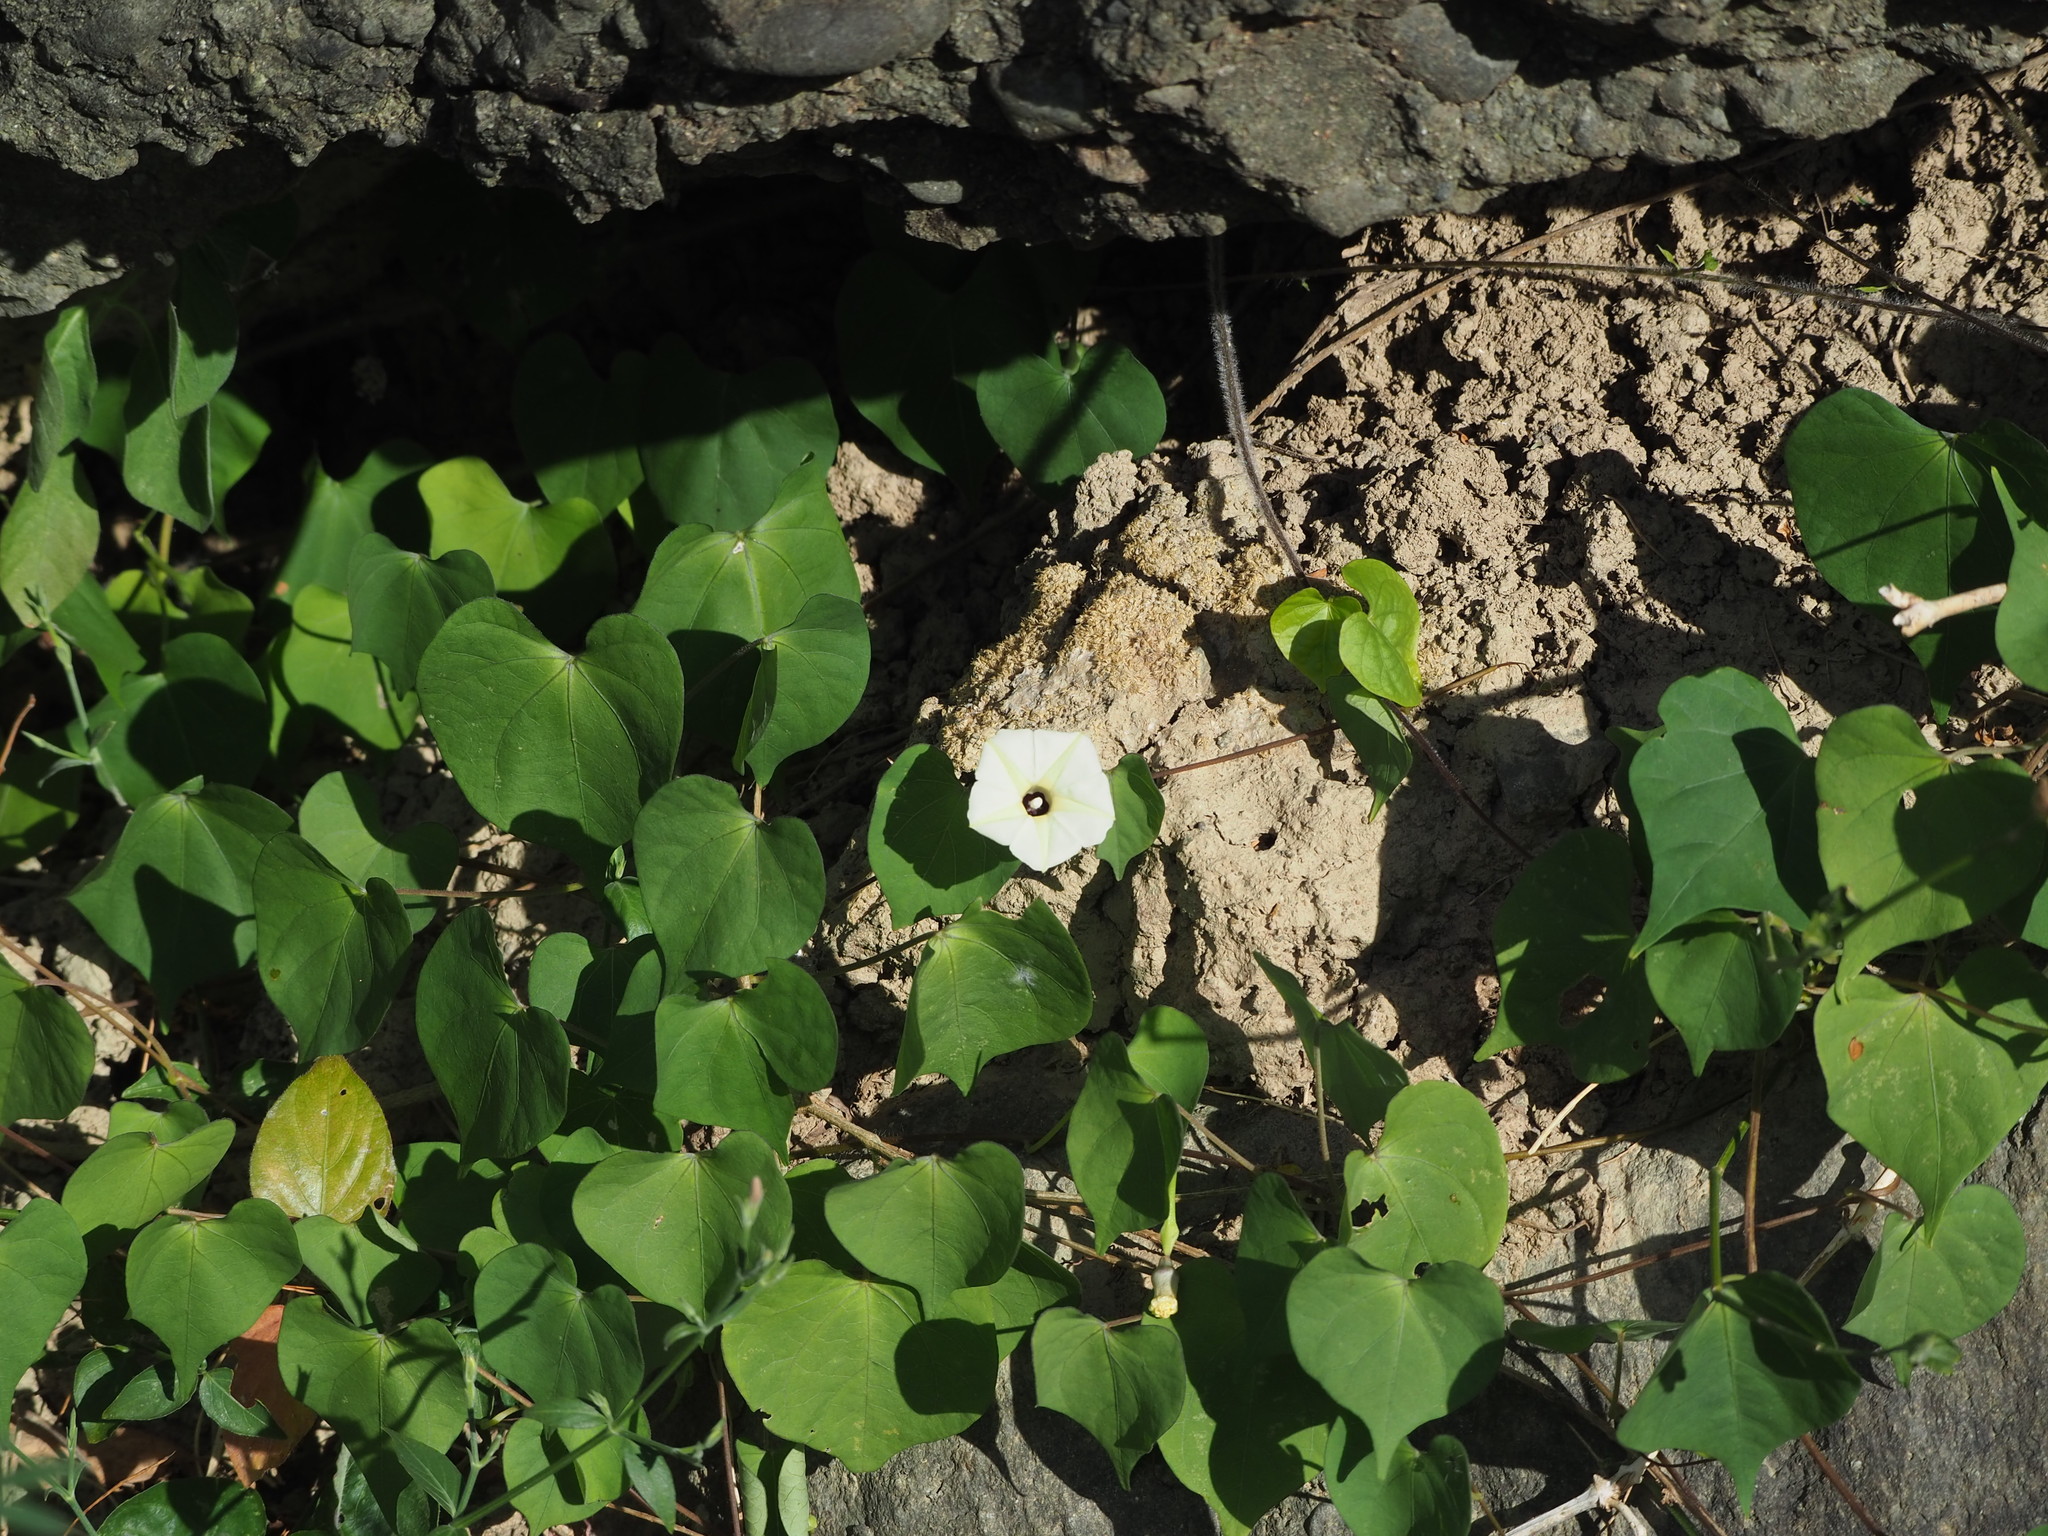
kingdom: Plantae
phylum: Tracheophyta
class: Magnoliopsida
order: Solanales
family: Convolvulaceae
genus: Ipomoea
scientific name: Ipomoea obscura
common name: Obscure morning-glory
